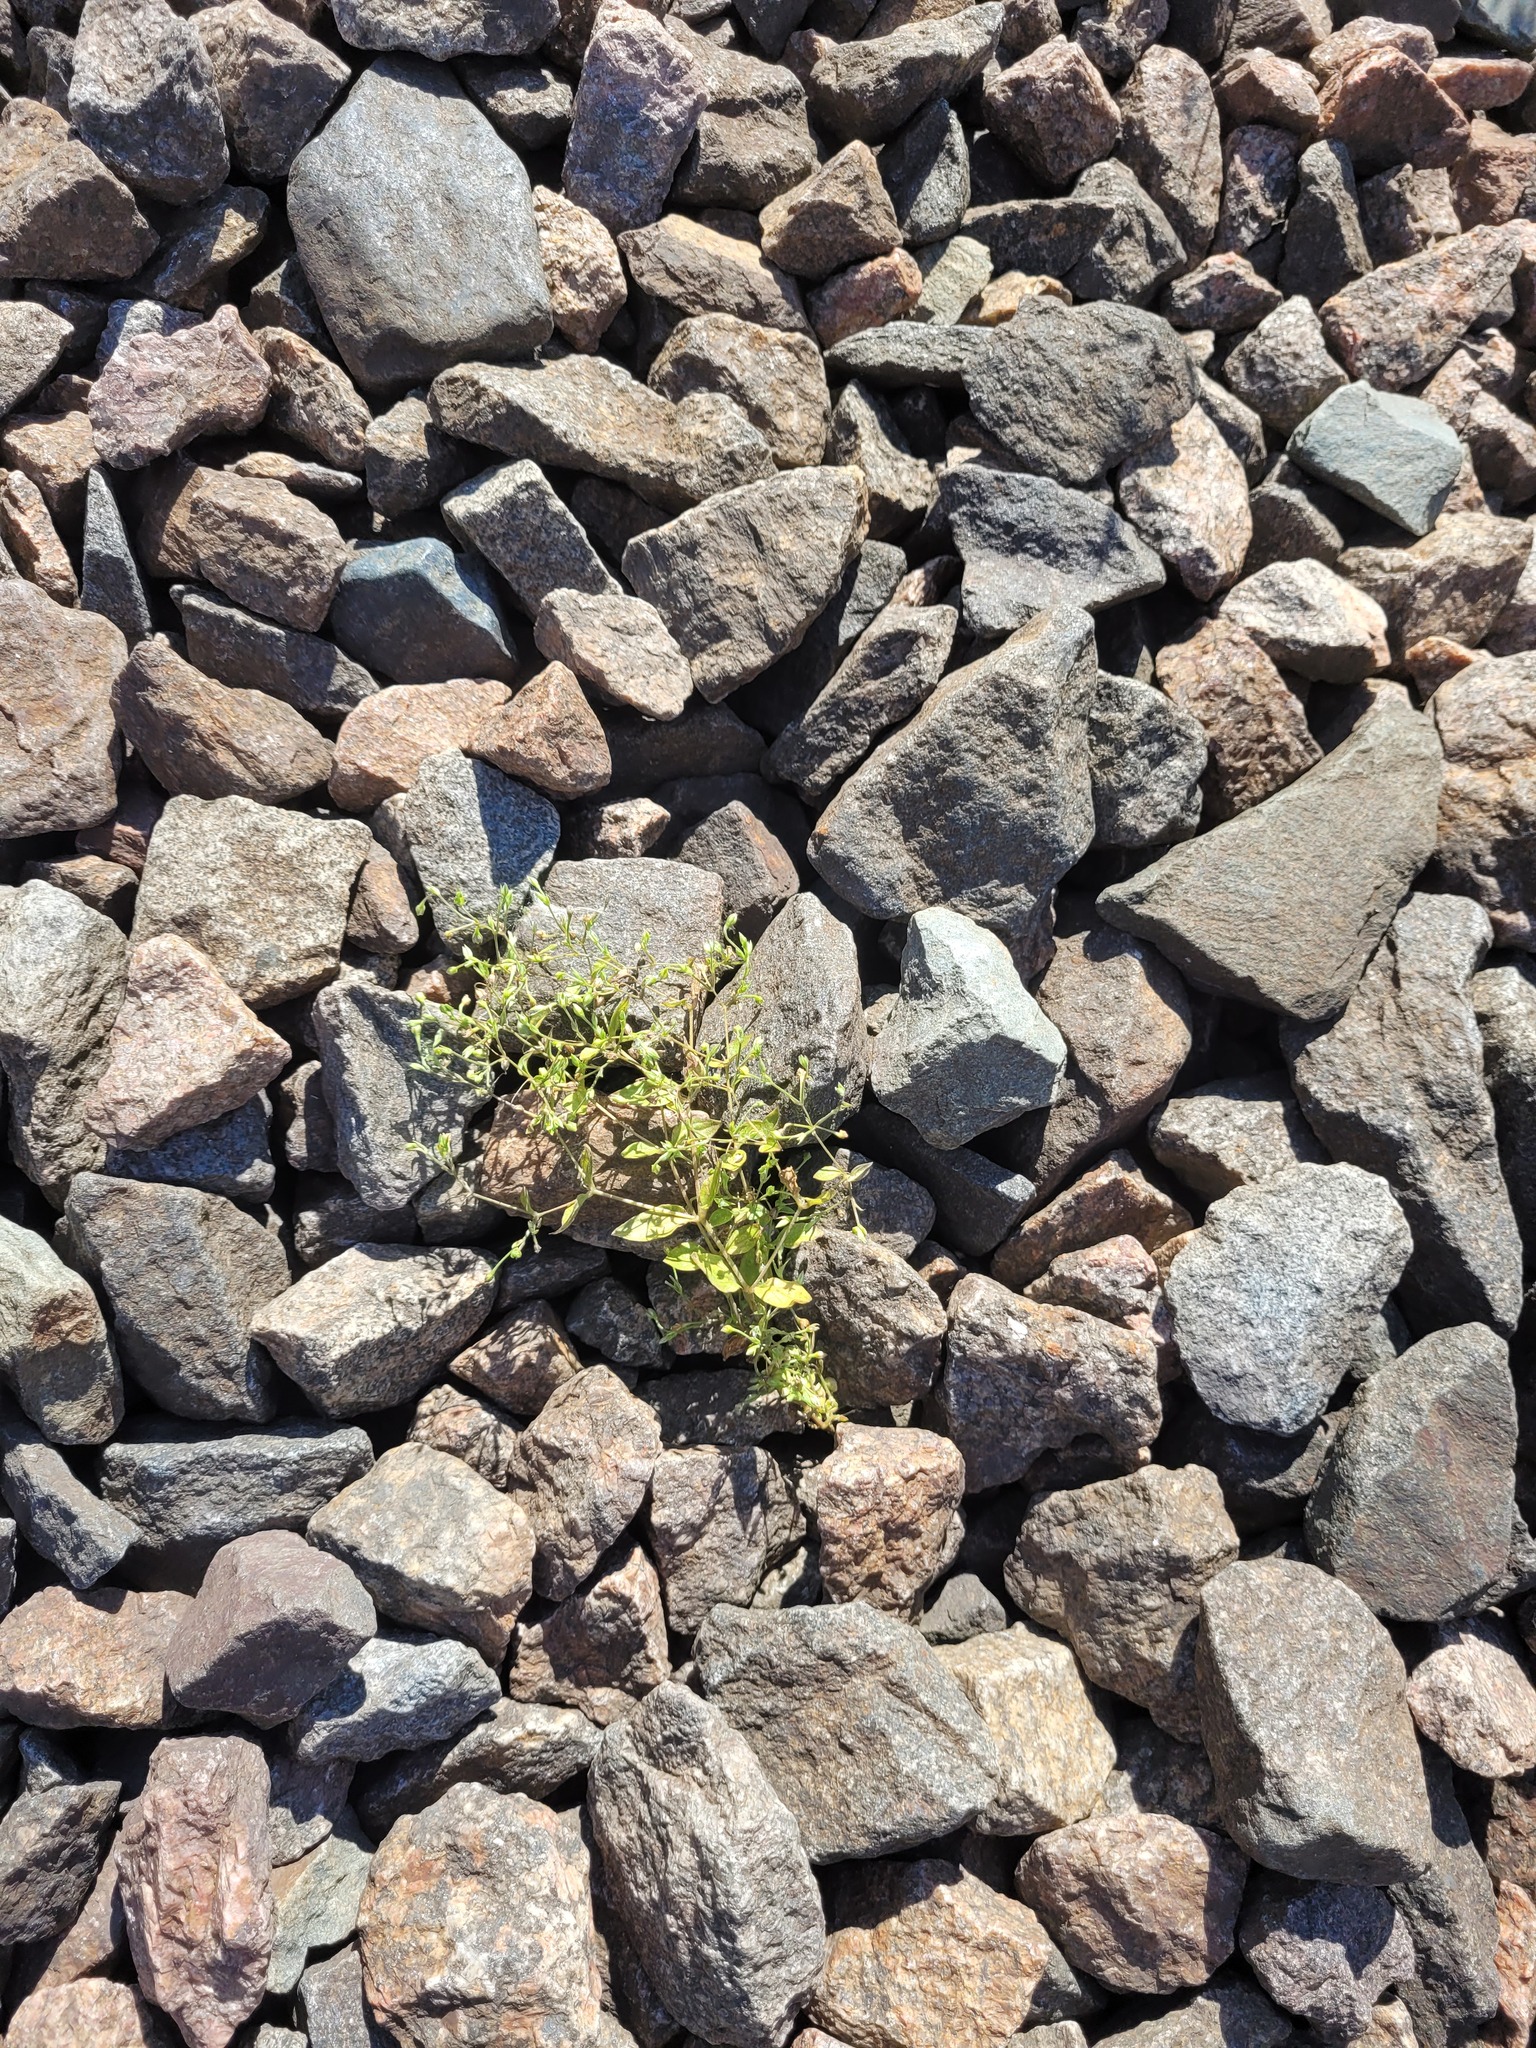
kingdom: Plantae
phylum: Tracheophyta
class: Magnoliopsida
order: Caryophyllales
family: Caryophyllaceae
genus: Moehringia
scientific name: Moehringia trinervia
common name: Three-nerved sandwort
